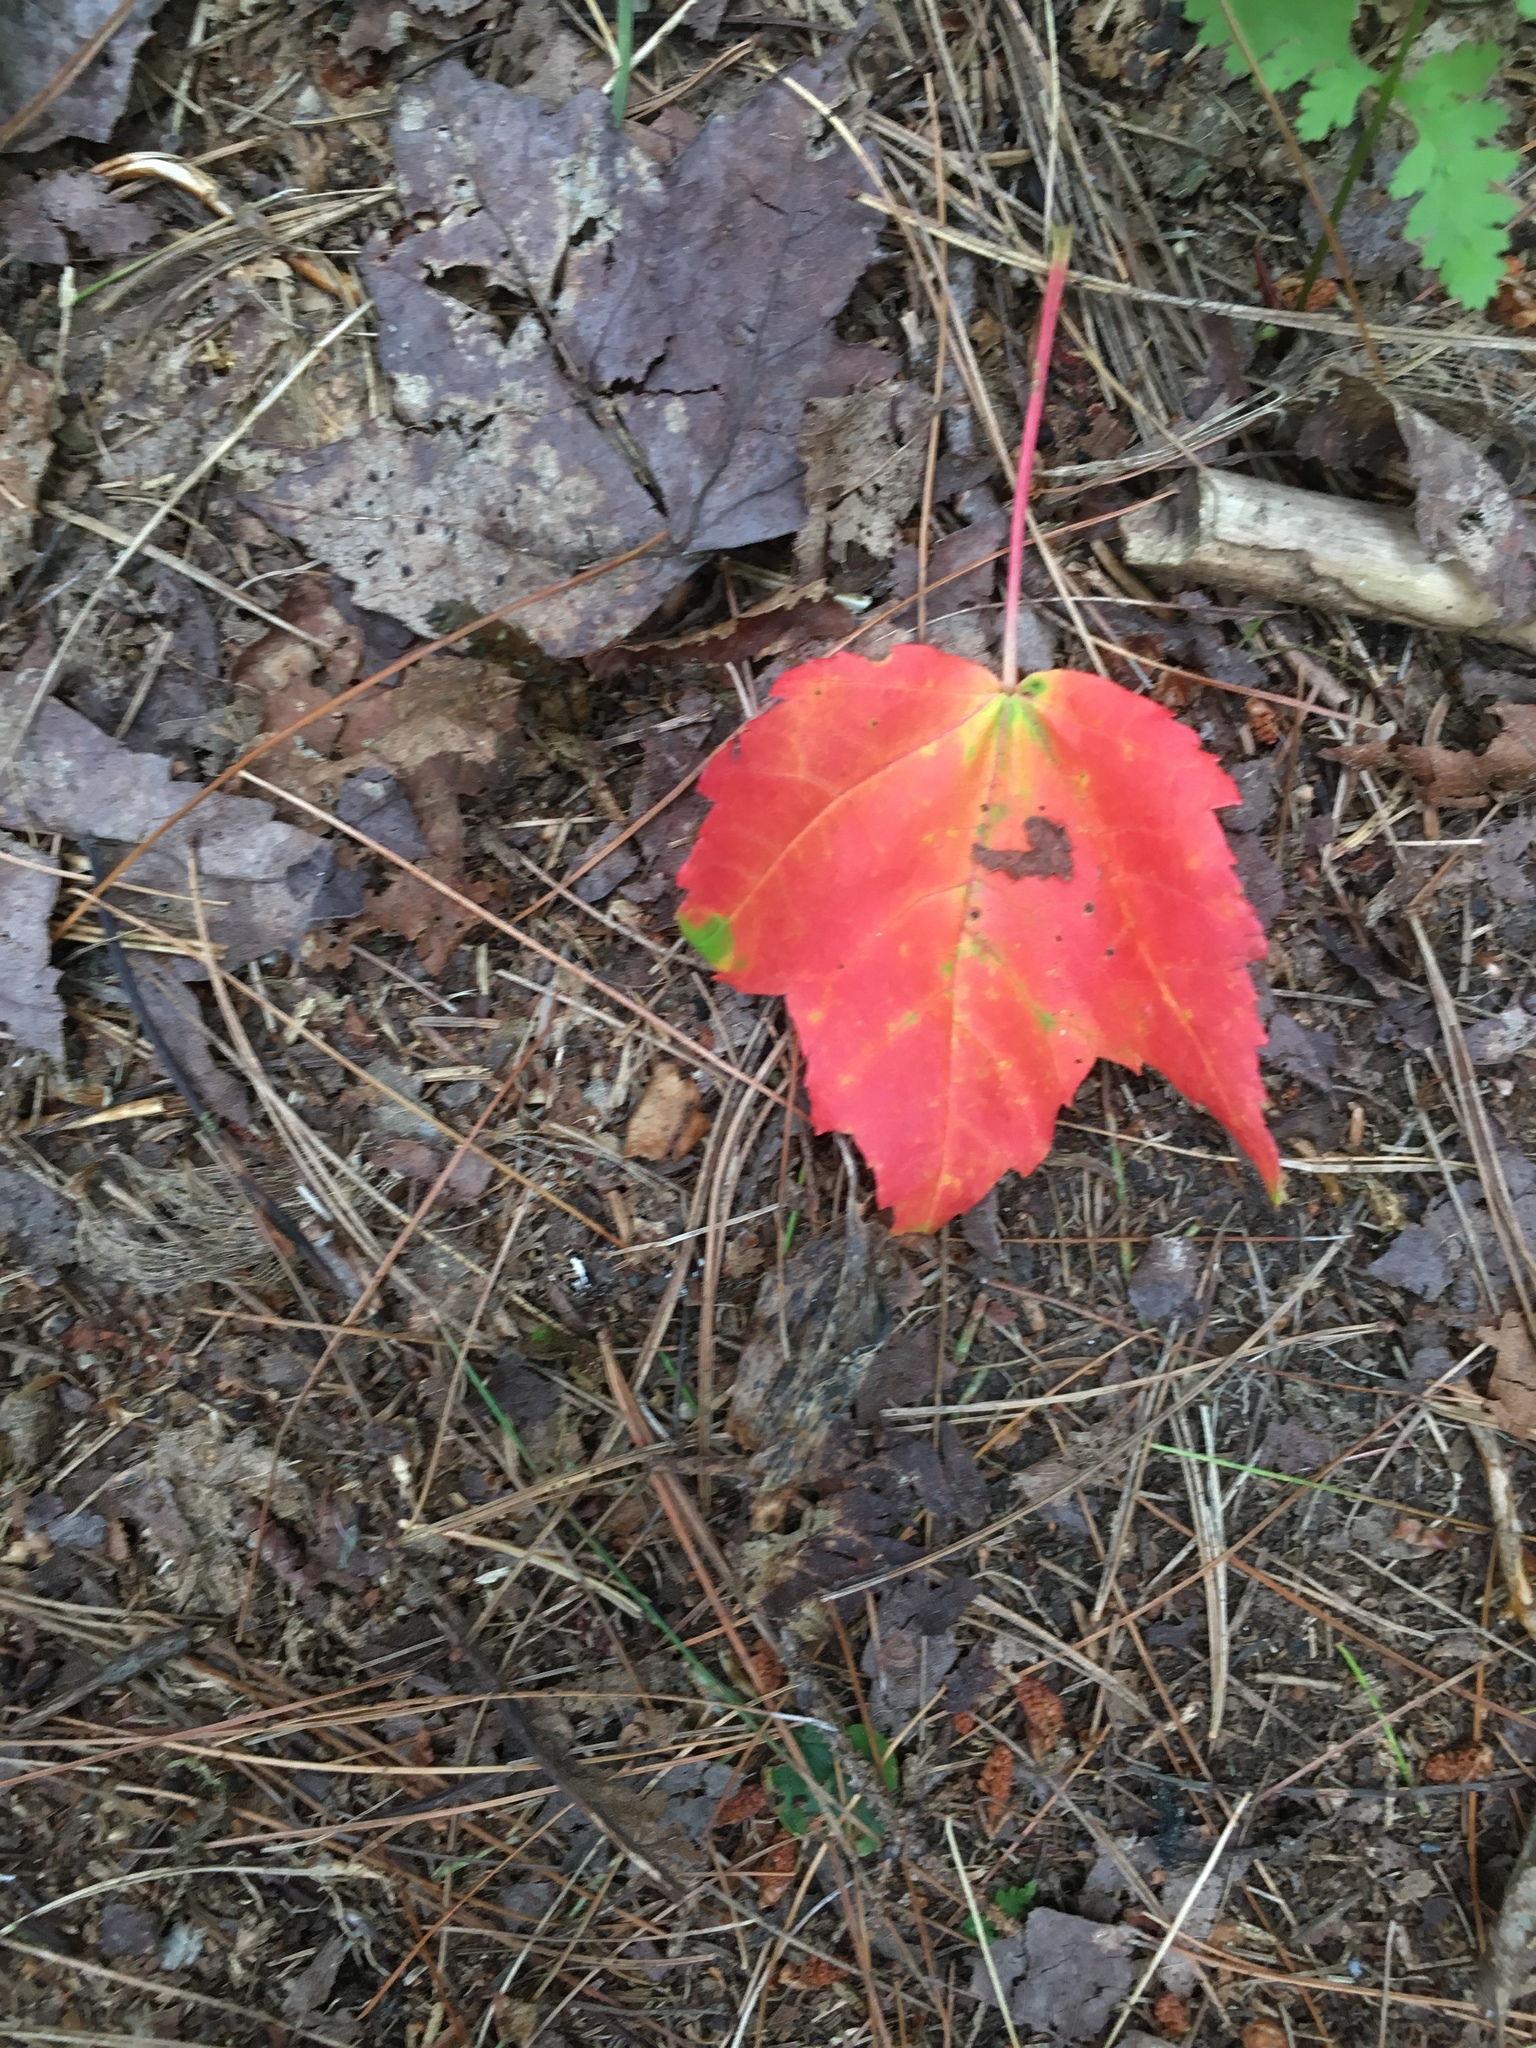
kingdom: Plantae
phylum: Tracheophyta
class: Magnoliopsida
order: Sapindales
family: Sapindaceae
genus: Acer
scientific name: Acer rubrum
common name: Red maple
